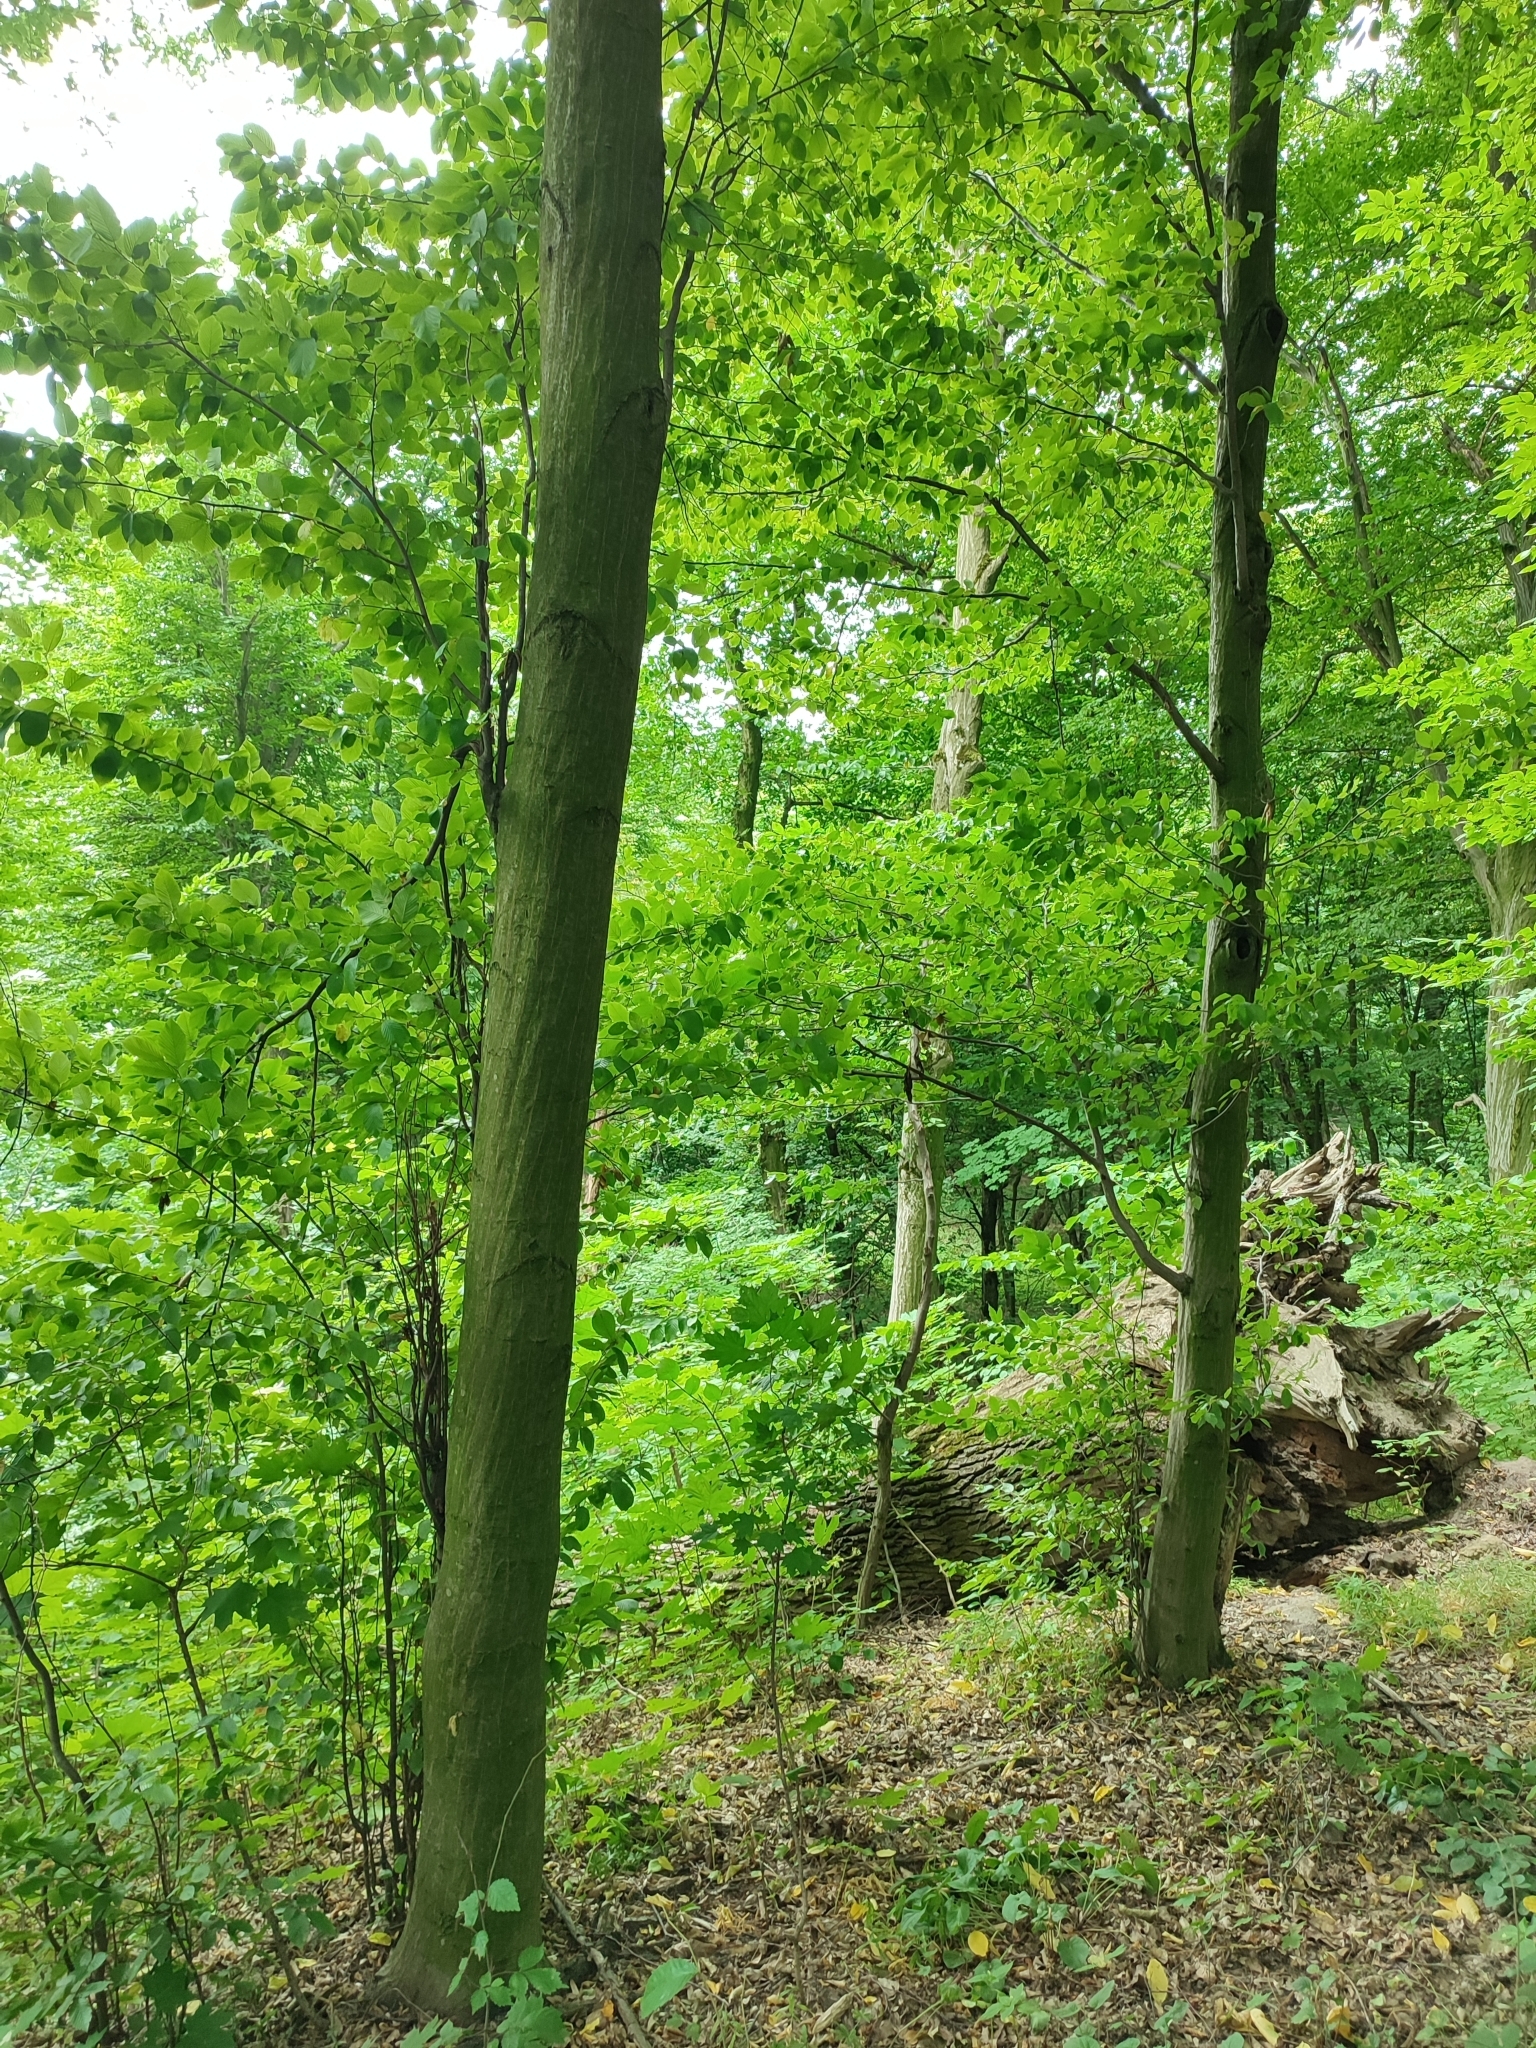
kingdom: Plantae
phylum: Tracheophyta
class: Magnoliopsida
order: Fagales
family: Betulaceae
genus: Carpinus
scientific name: Carpinus betulus
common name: Hornbeam
